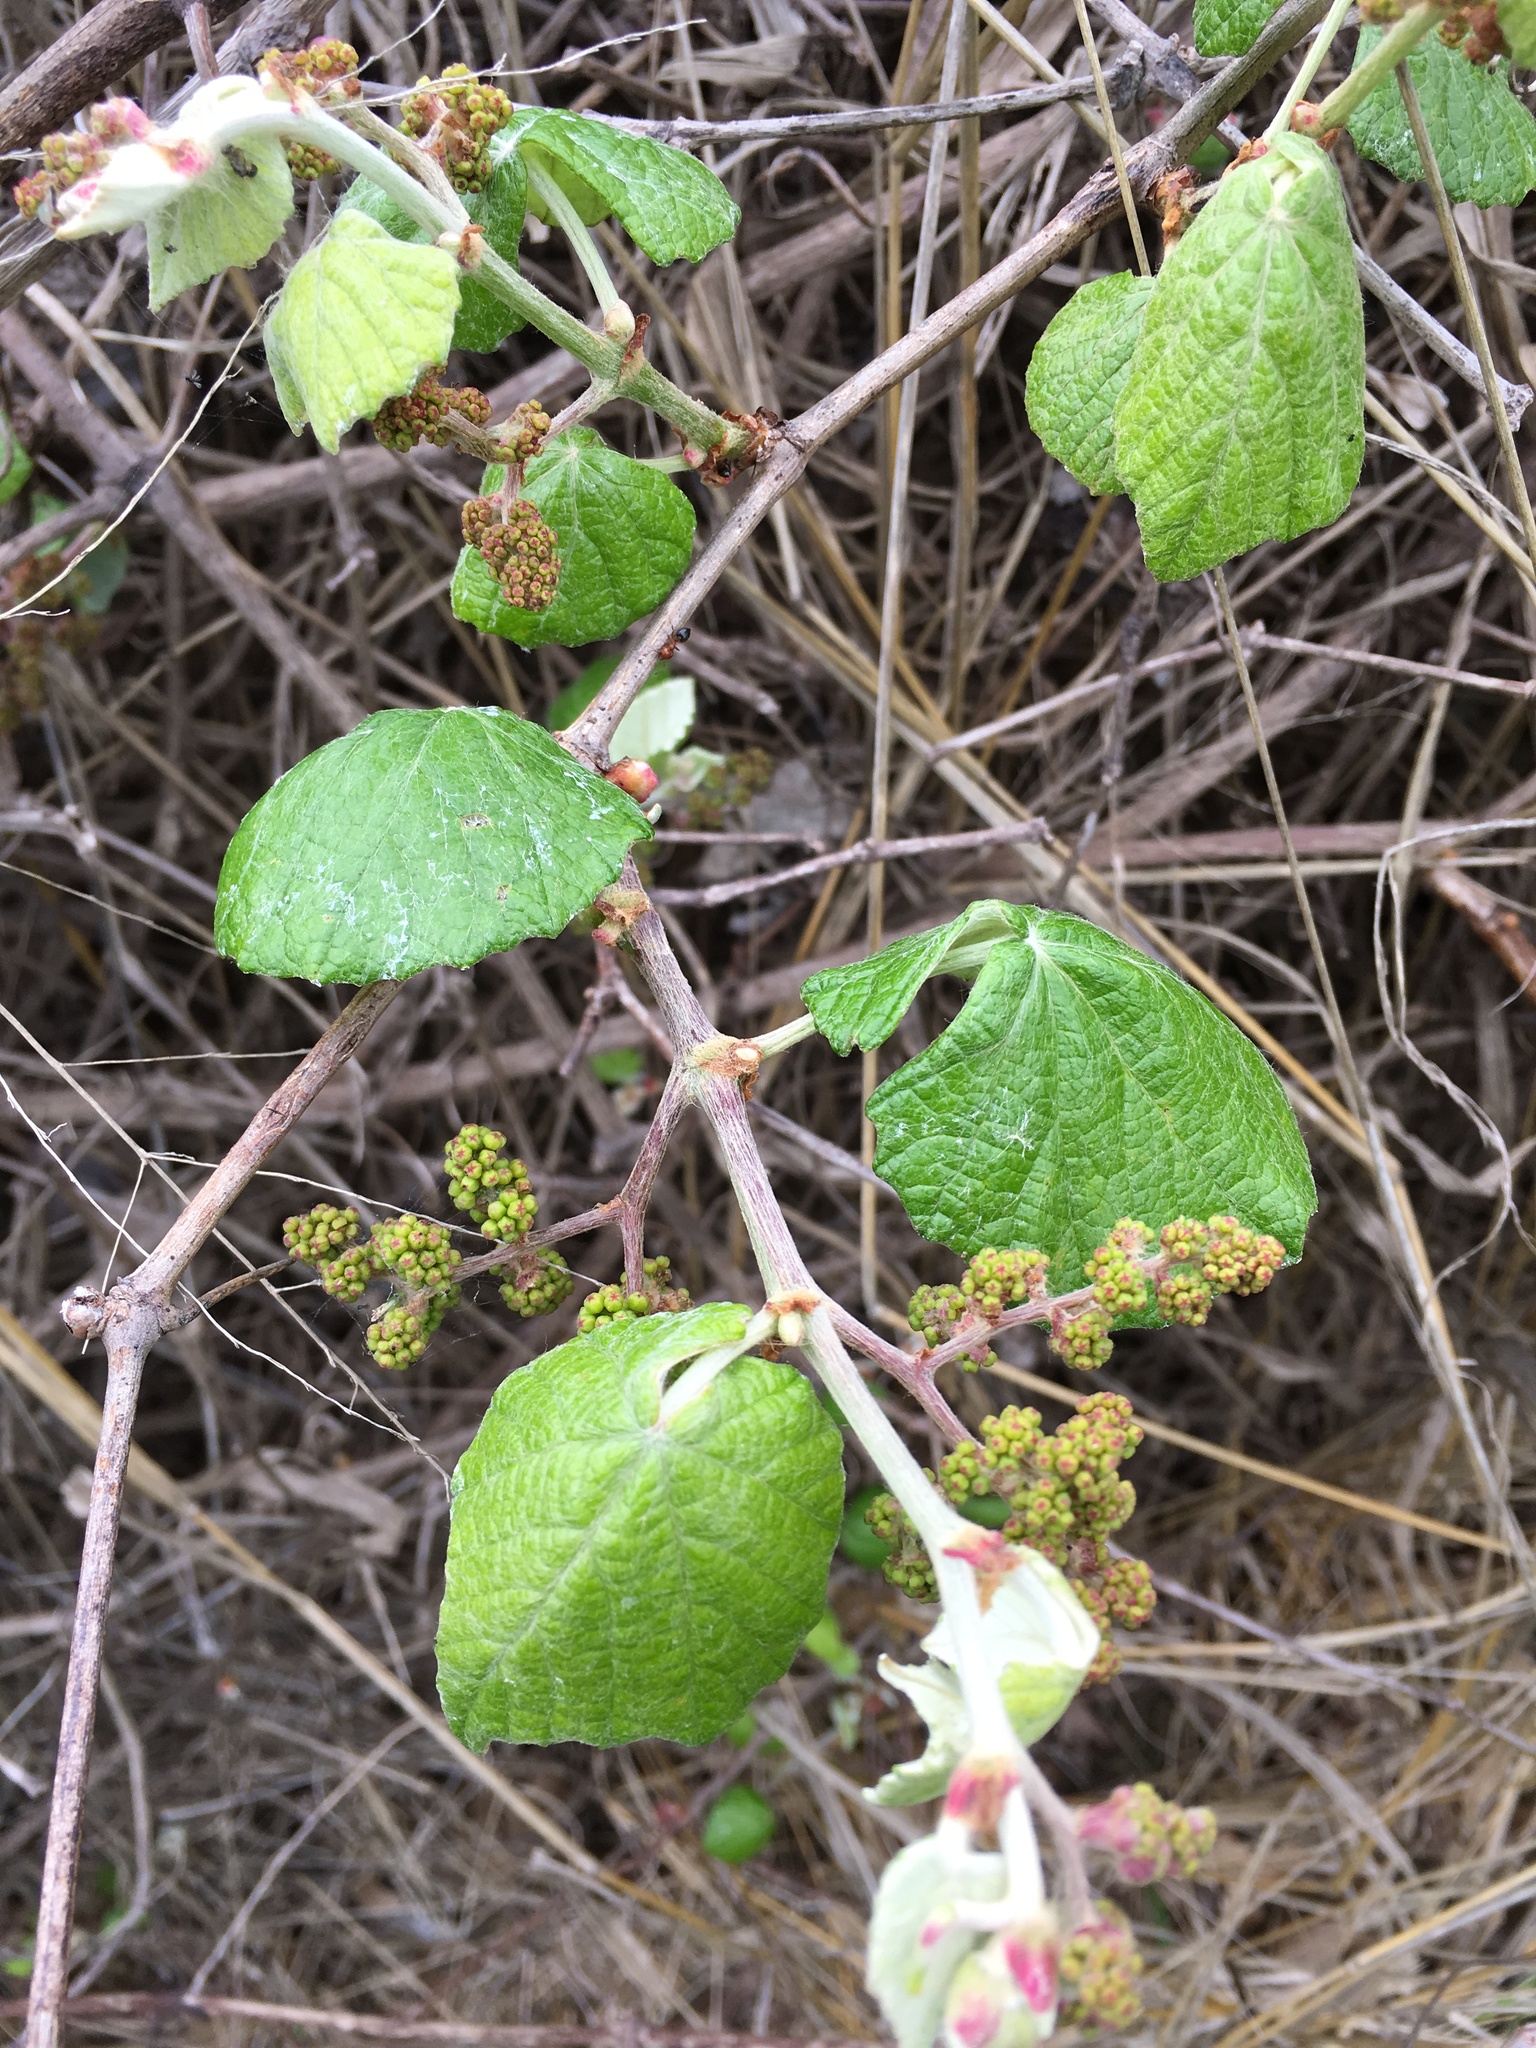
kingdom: Plantae
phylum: Tracheophyta
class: Magnoliopsida
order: Vitales
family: Vitaceae
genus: Vitis
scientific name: Vitis mustangensis
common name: Mustang grape
